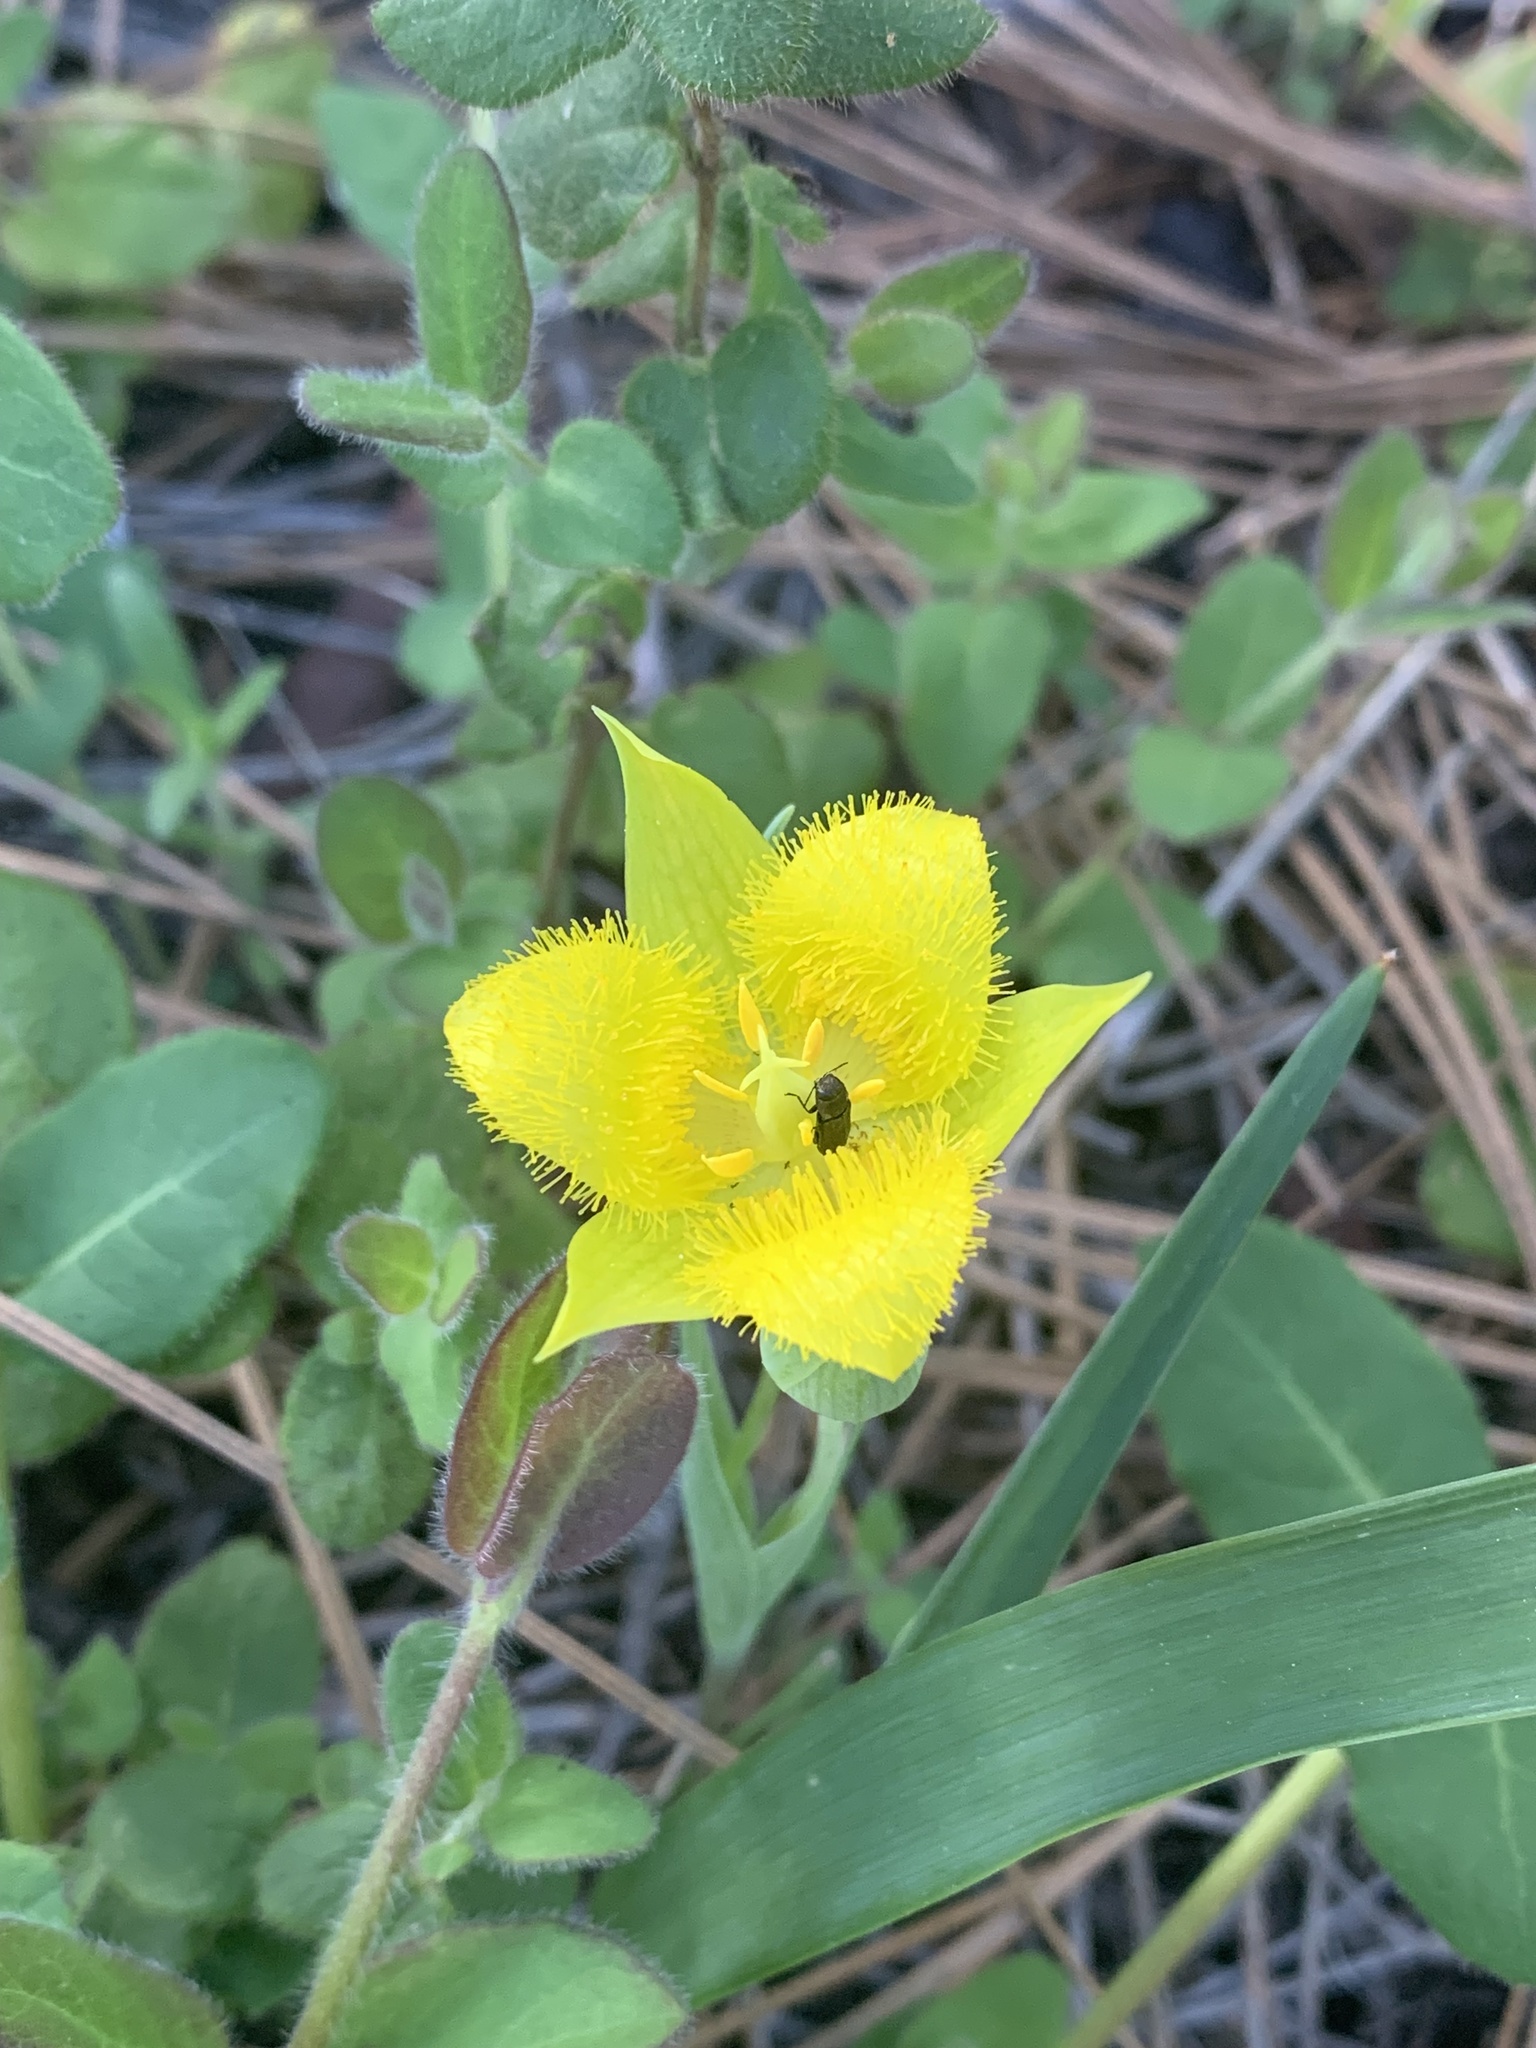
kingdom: Plantae
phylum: Tracheophyta
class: Liliopsida
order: Liliales
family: Liliaceae
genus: Calochortus
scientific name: Calochortus monophyllus
